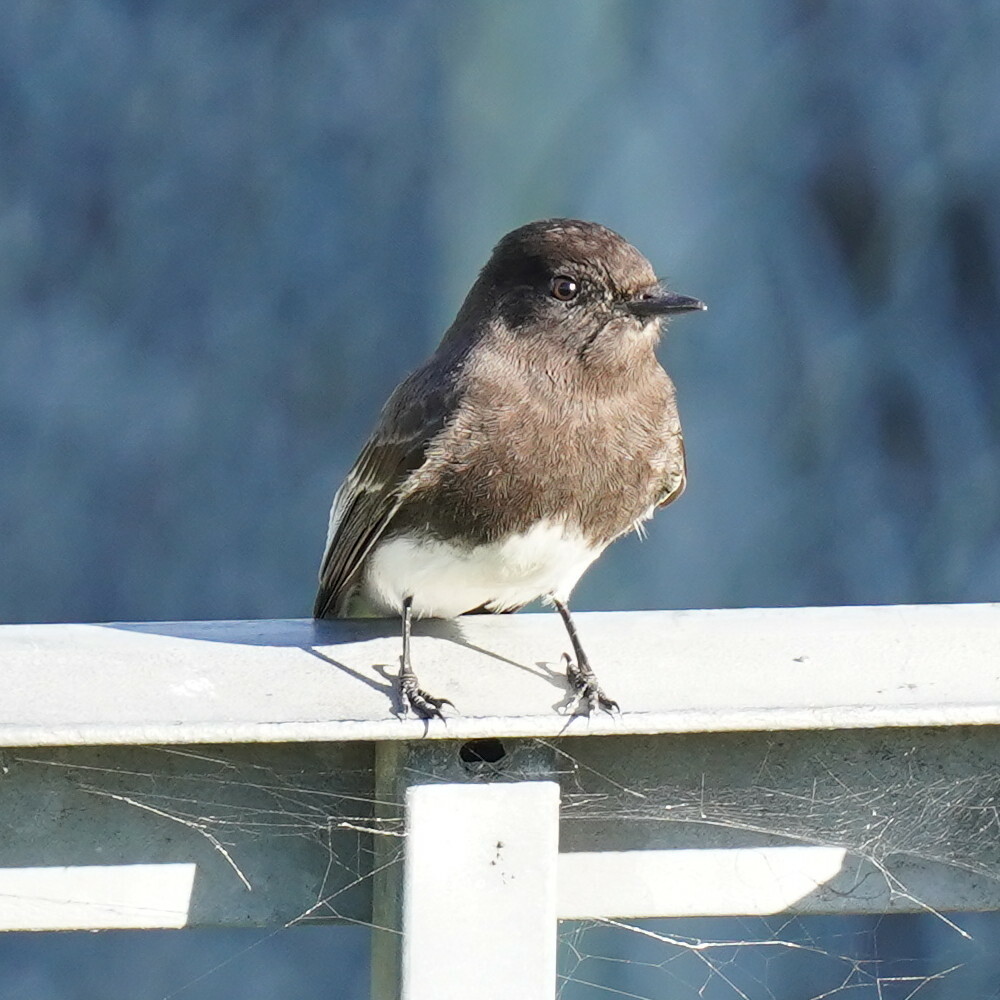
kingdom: Animalia
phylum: Chordata
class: Aves
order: Passeriformes
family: Tyrannidae
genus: Sayornis
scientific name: Sayornis nigricans
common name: Black phoebe
